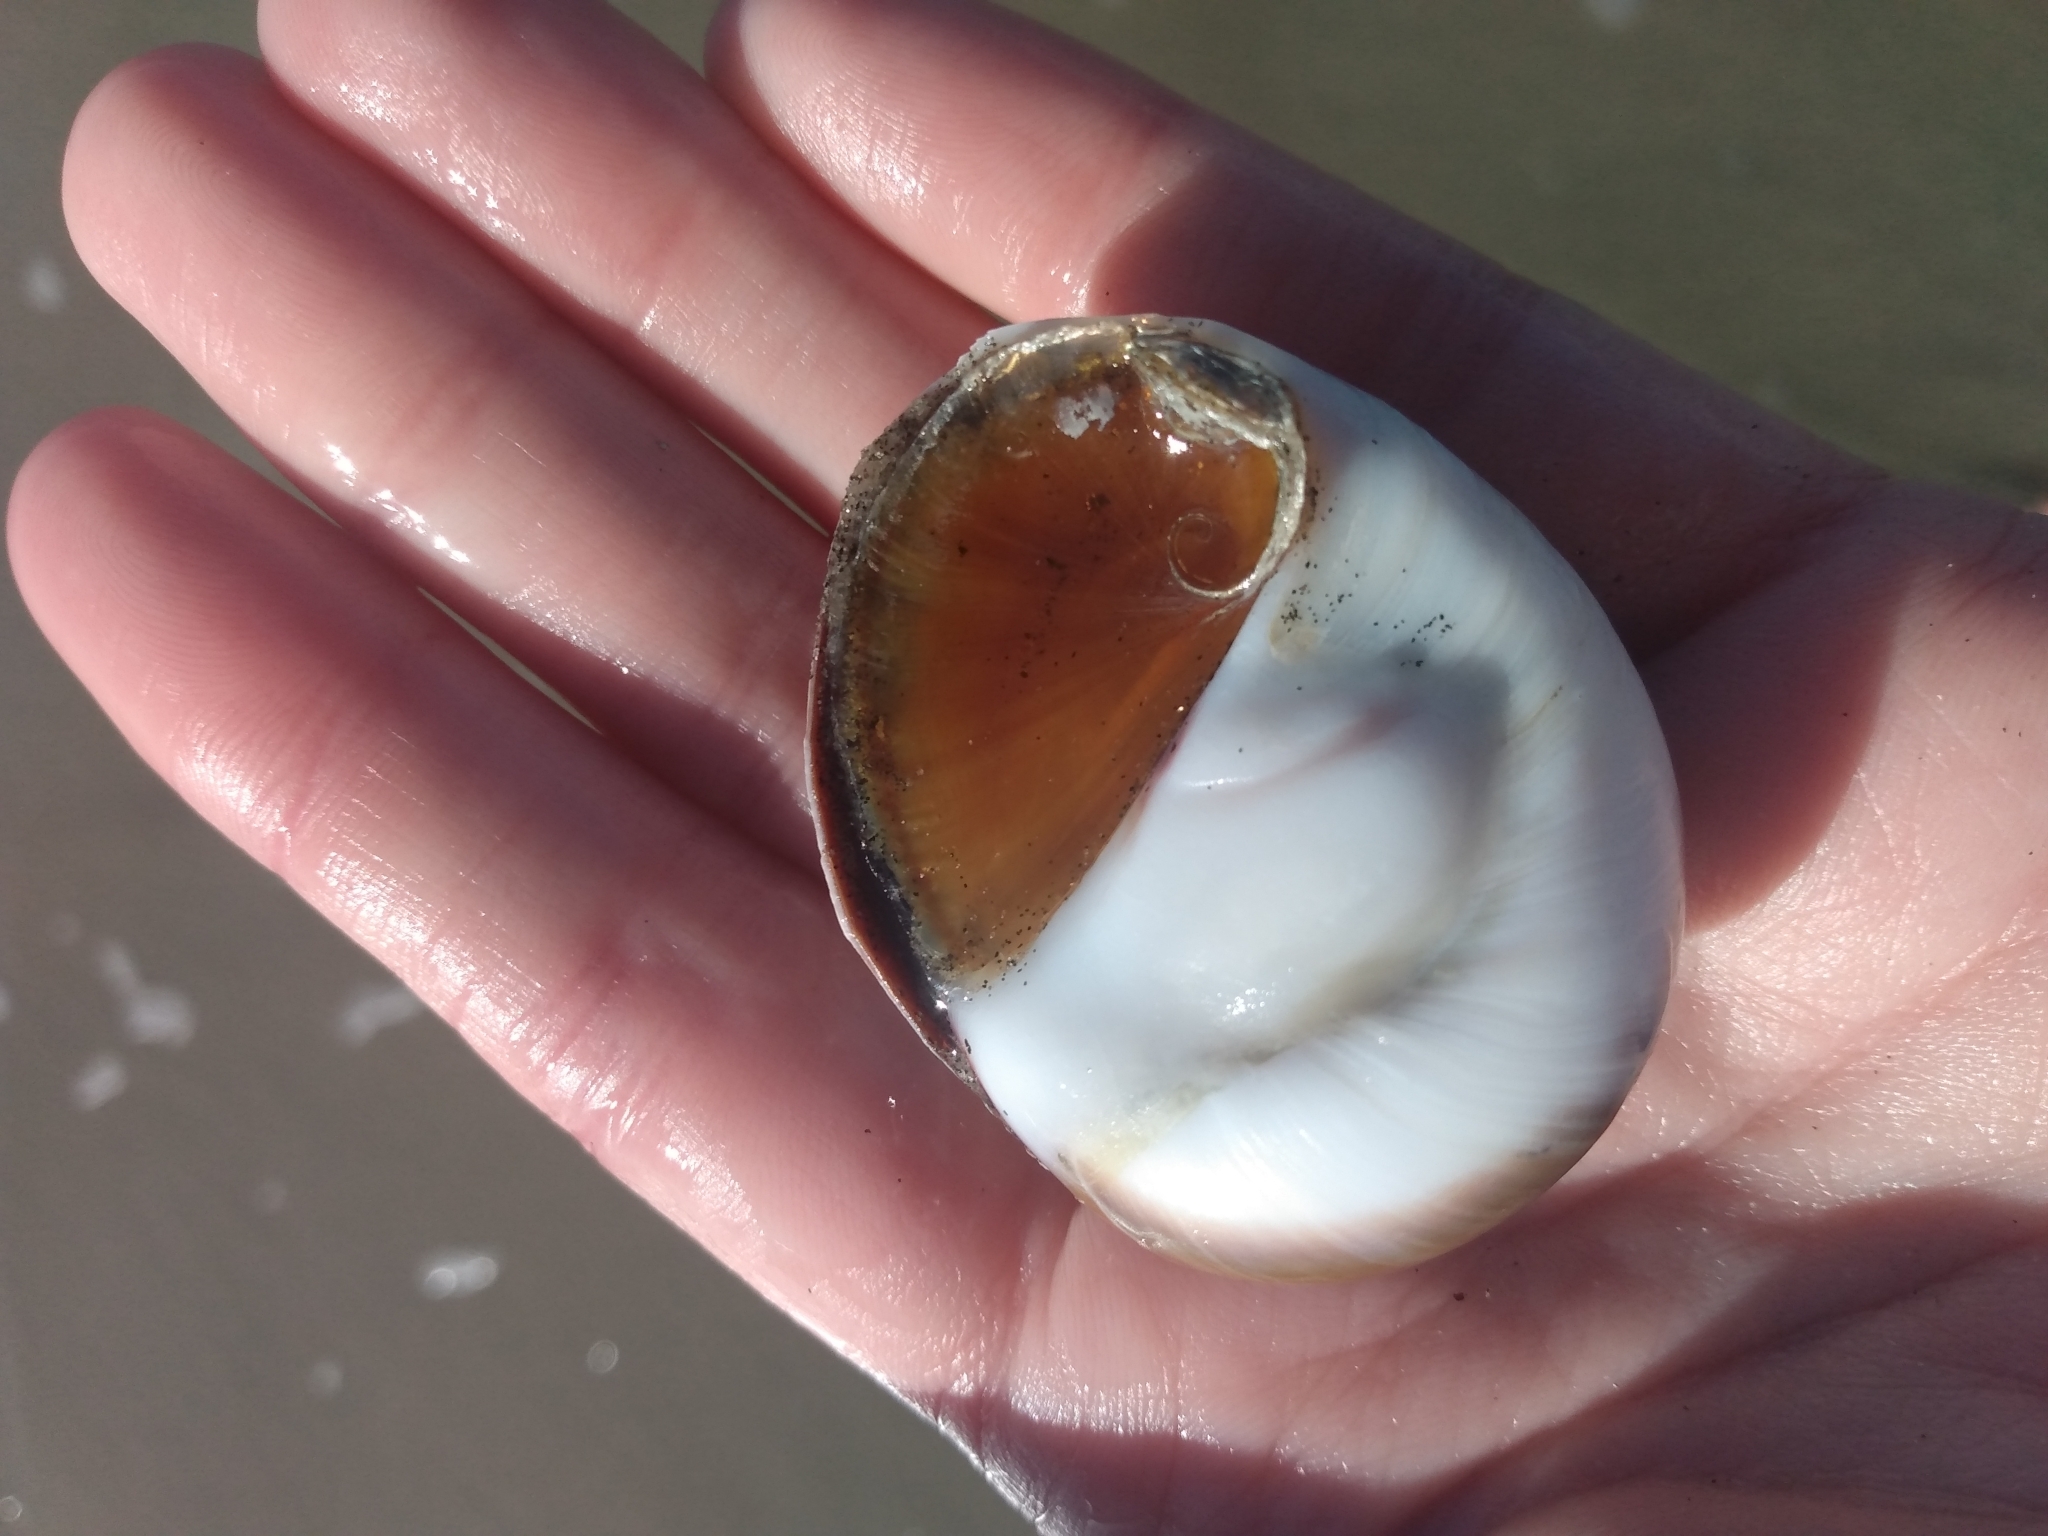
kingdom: Animalia
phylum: Mollusca
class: Gastropoda
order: Littorinimorpha
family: Naticidae
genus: Glossaulax
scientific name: Glossaulax reclusiana
